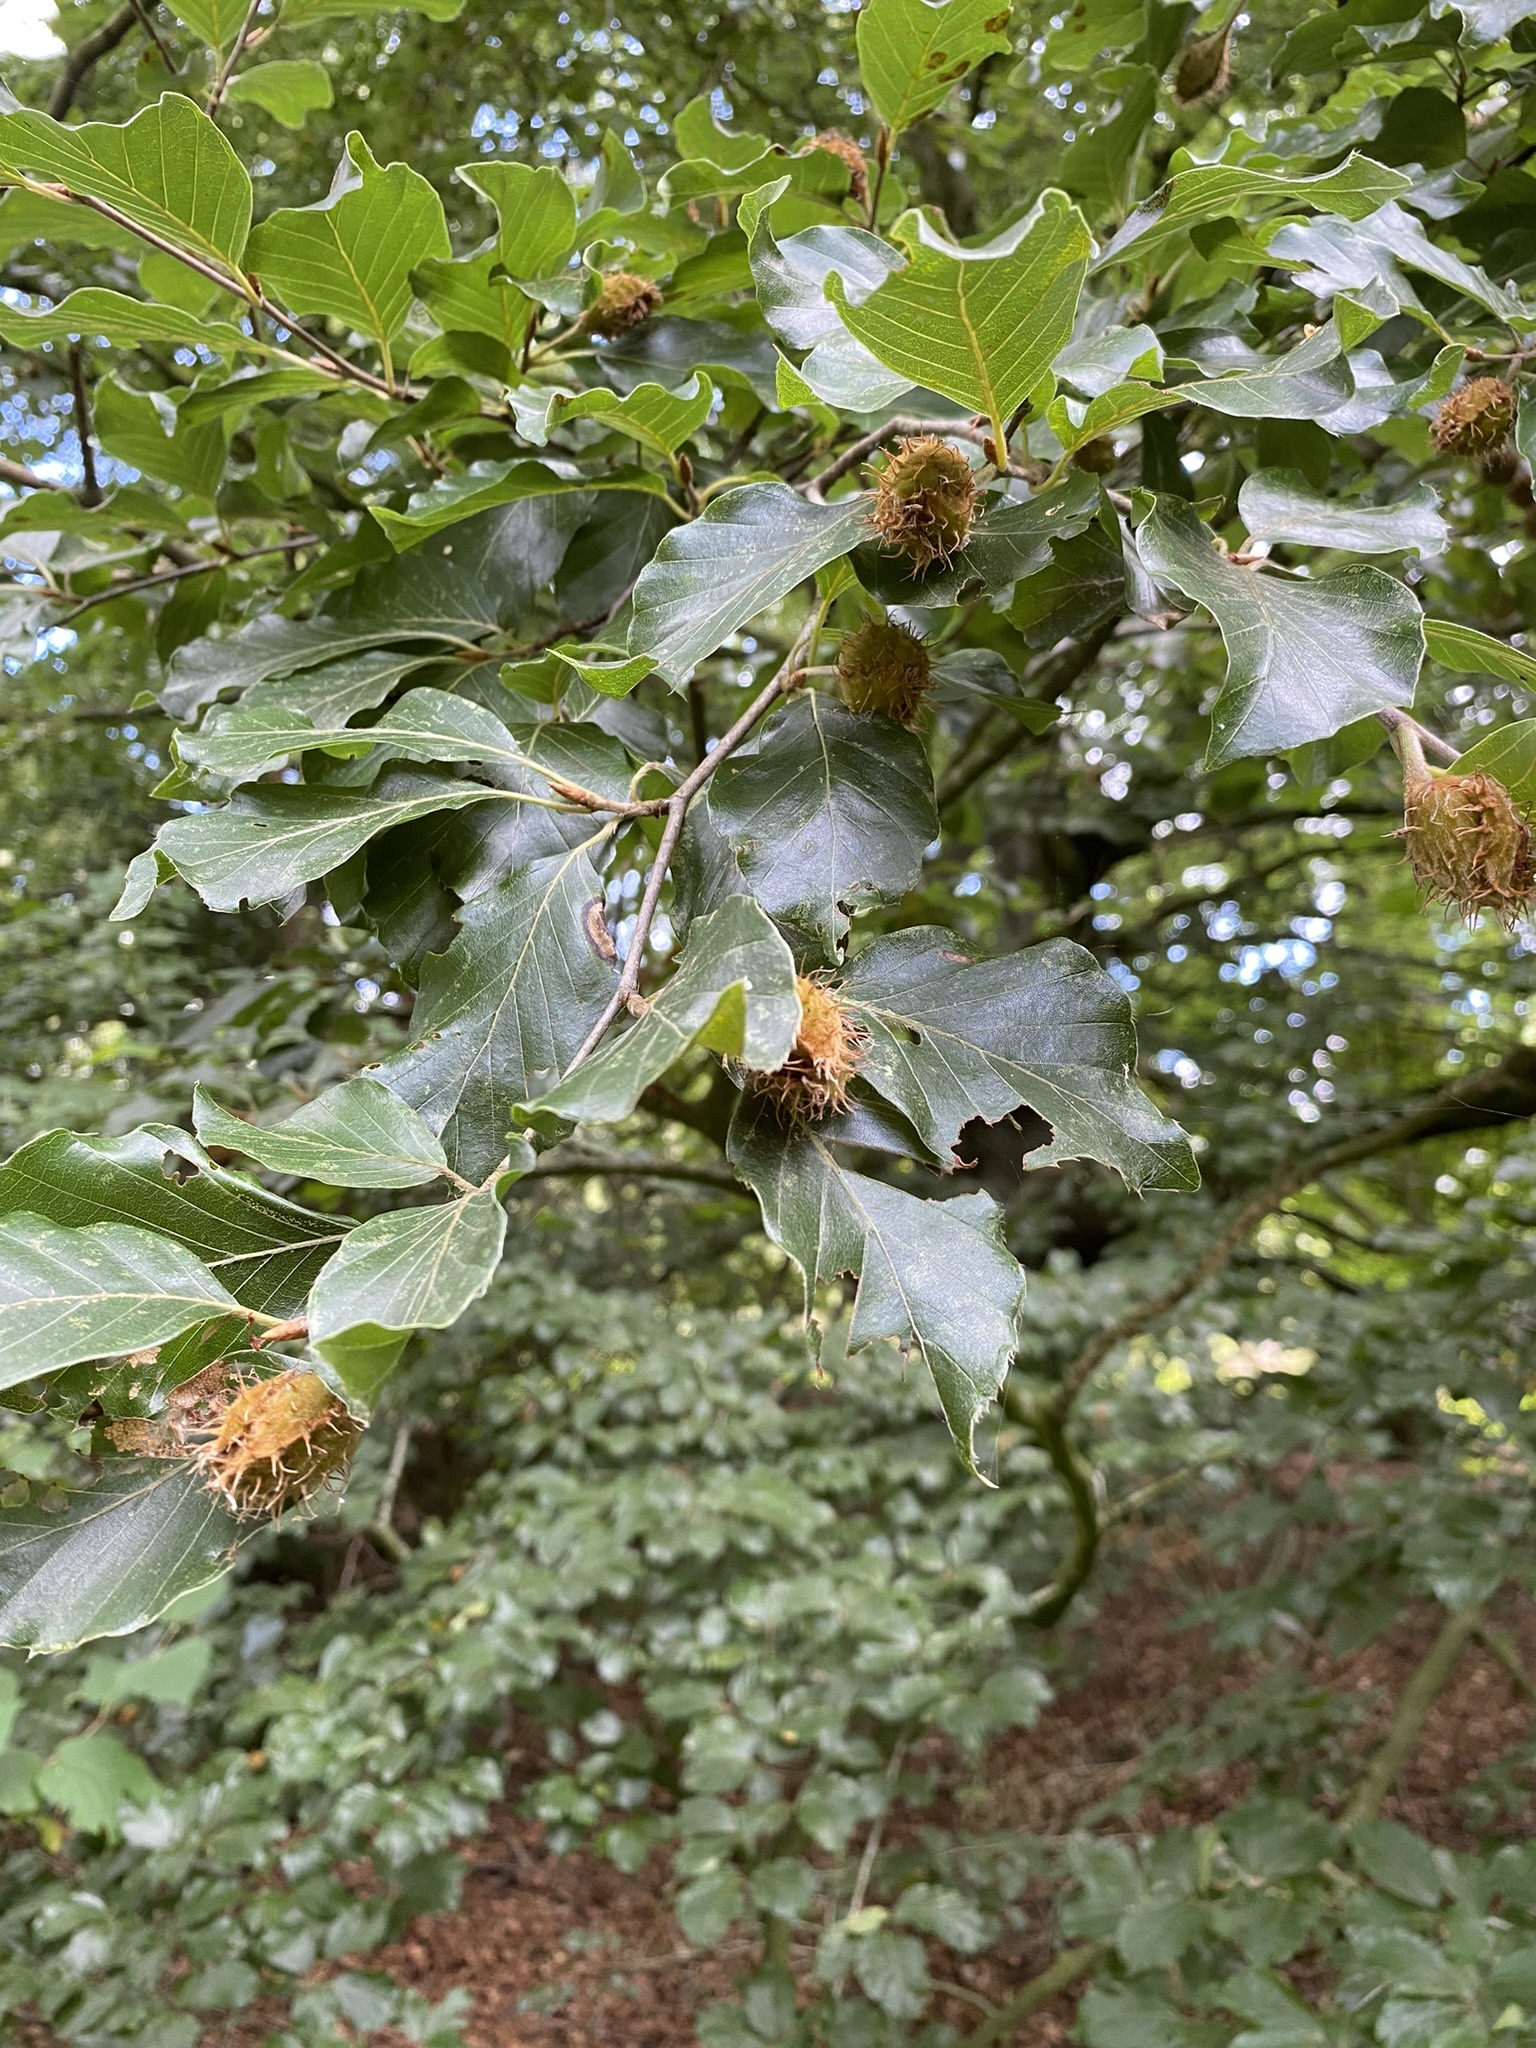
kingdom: Plantae
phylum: Tracheophyta
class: Magnoliopsida
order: Fagales
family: Fagaceae
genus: Fagus
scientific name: Fagus sylvatica
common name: Beech
